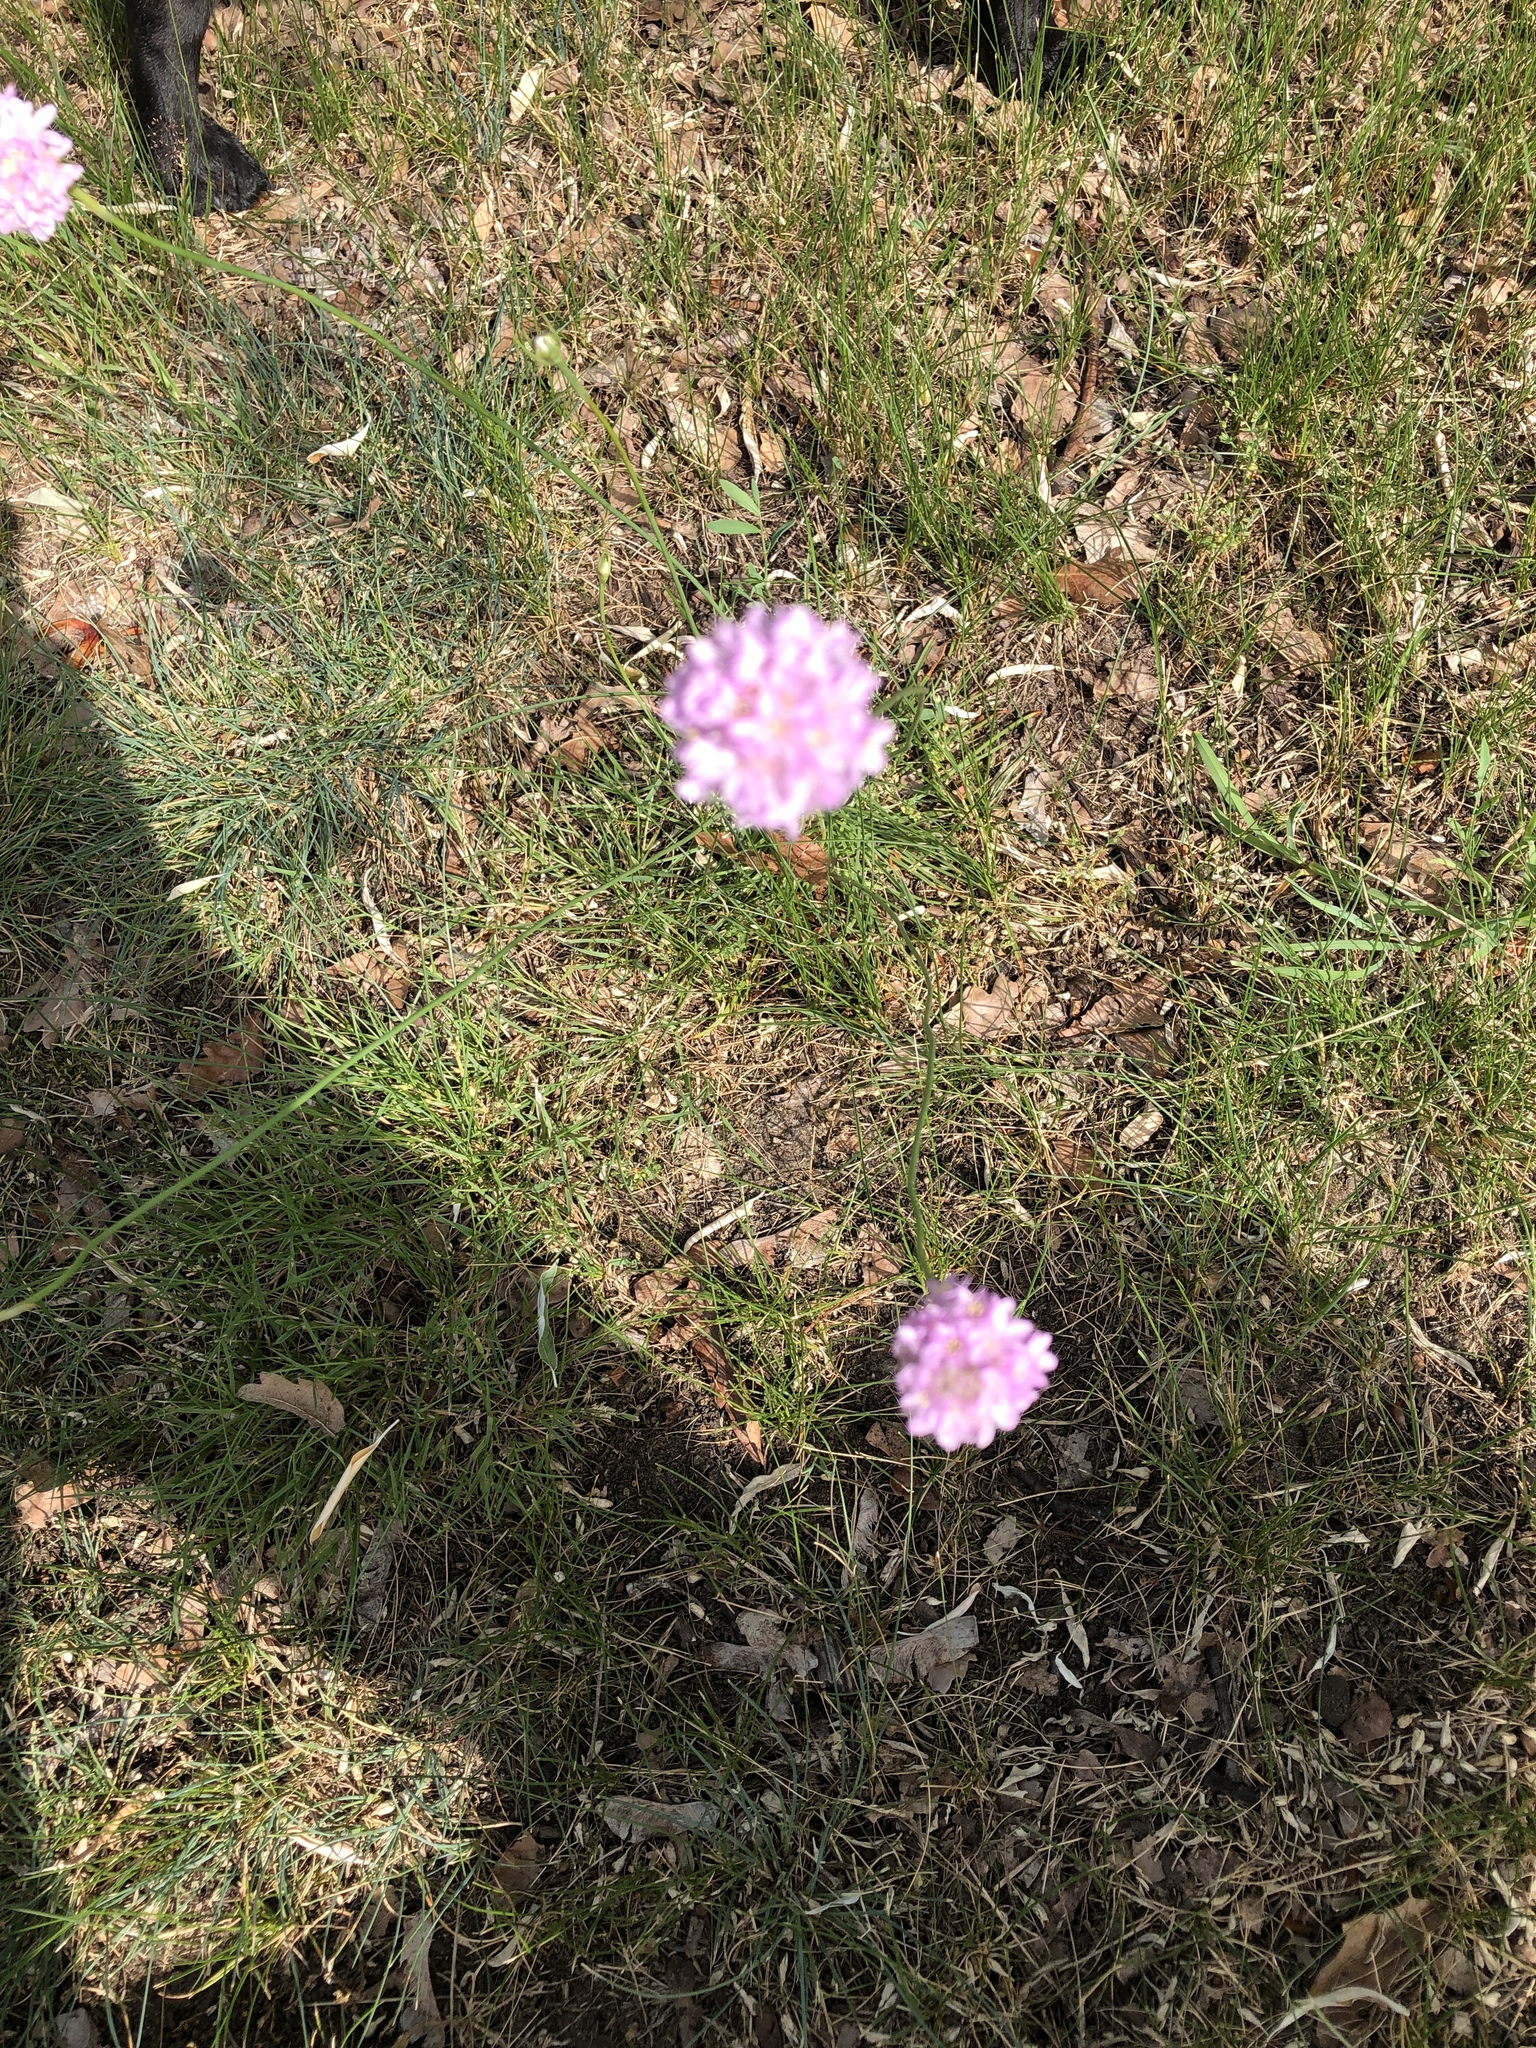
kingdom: Plantae
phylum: Tracheophyta
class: Magnoliopsida
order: Caryophyllales
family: Plumbaginaceae
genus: Armeria
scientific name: Armeria maritima
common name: Thrift
